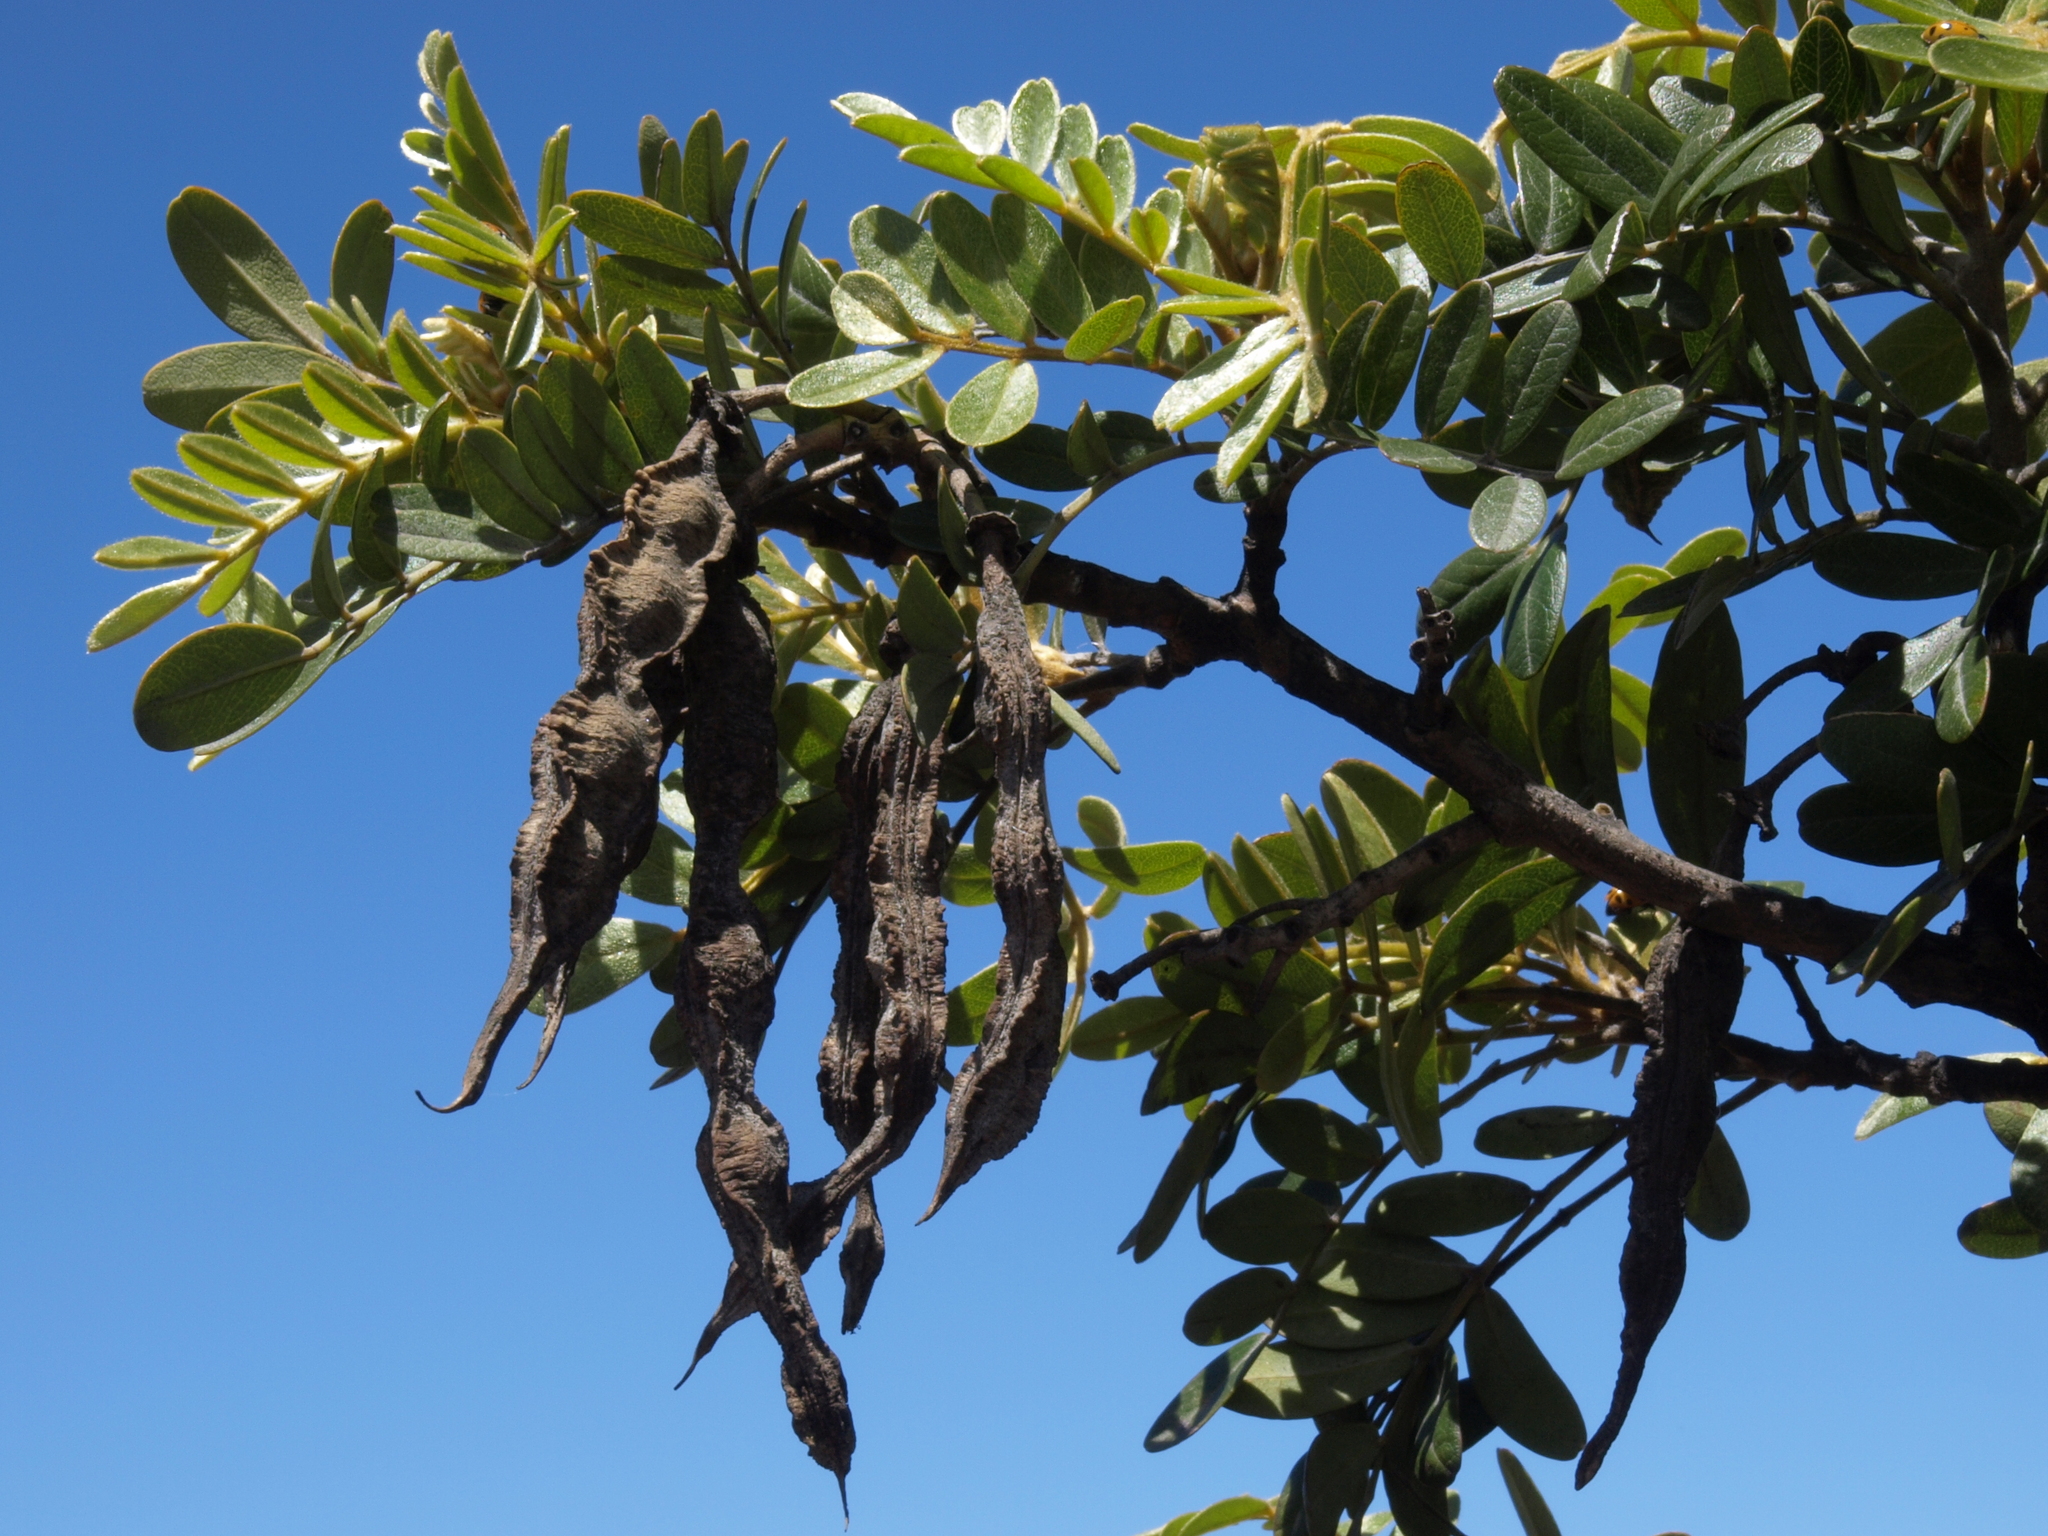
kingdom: Plantae
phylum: Tracheophyta
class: Magnoliopsida
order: Fabales
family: Fabaceae
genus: Sophora
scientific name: Sophora chrysophylla
